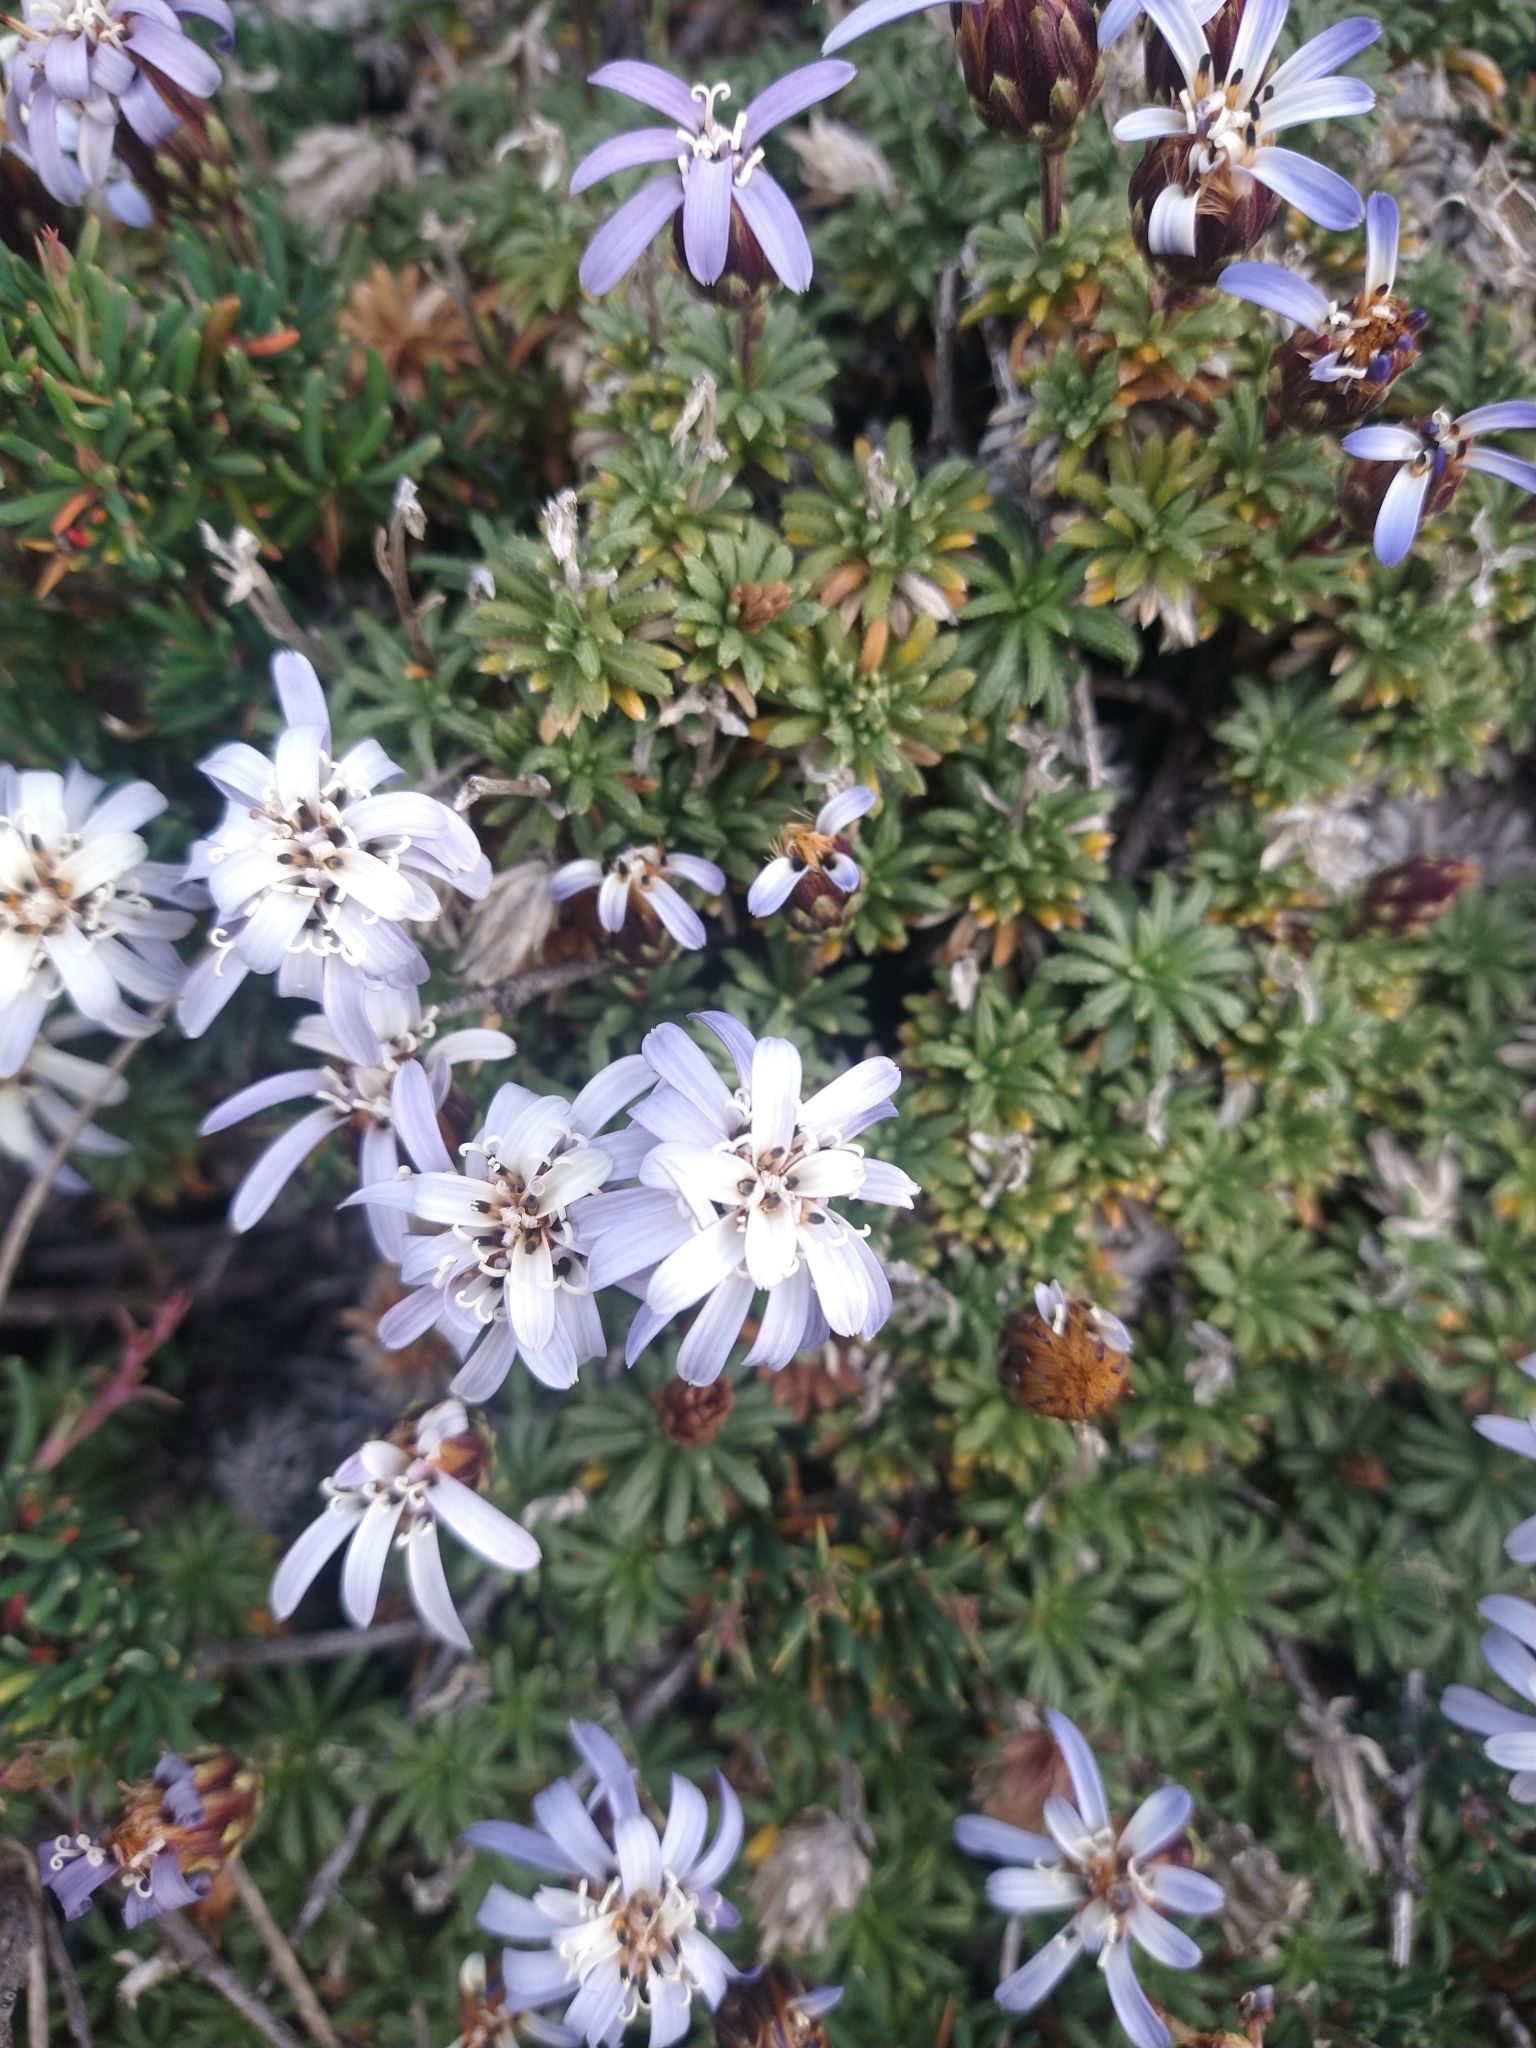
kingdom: Plantae
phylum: Tracheophyta
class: Magnoliopsida
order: Asterales
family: Asteraceae
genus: Perezia
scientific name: Perezia recurvata
